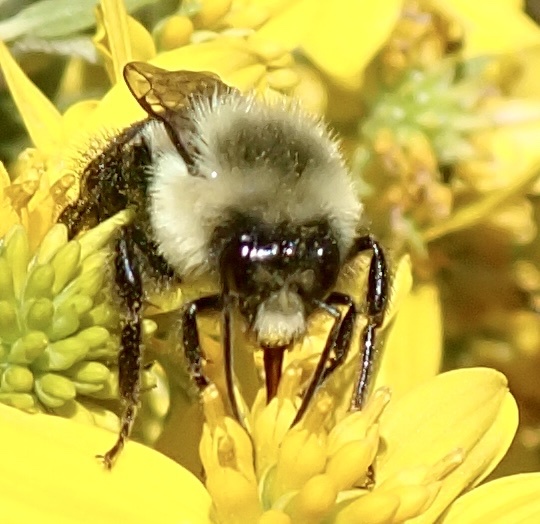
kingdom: Animalia
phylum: Arthropoda
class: Insecta
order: Hymenoptera
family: Apidae
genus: Bombus
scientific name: Bombus impatiens
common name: Common eastern bumble bee
